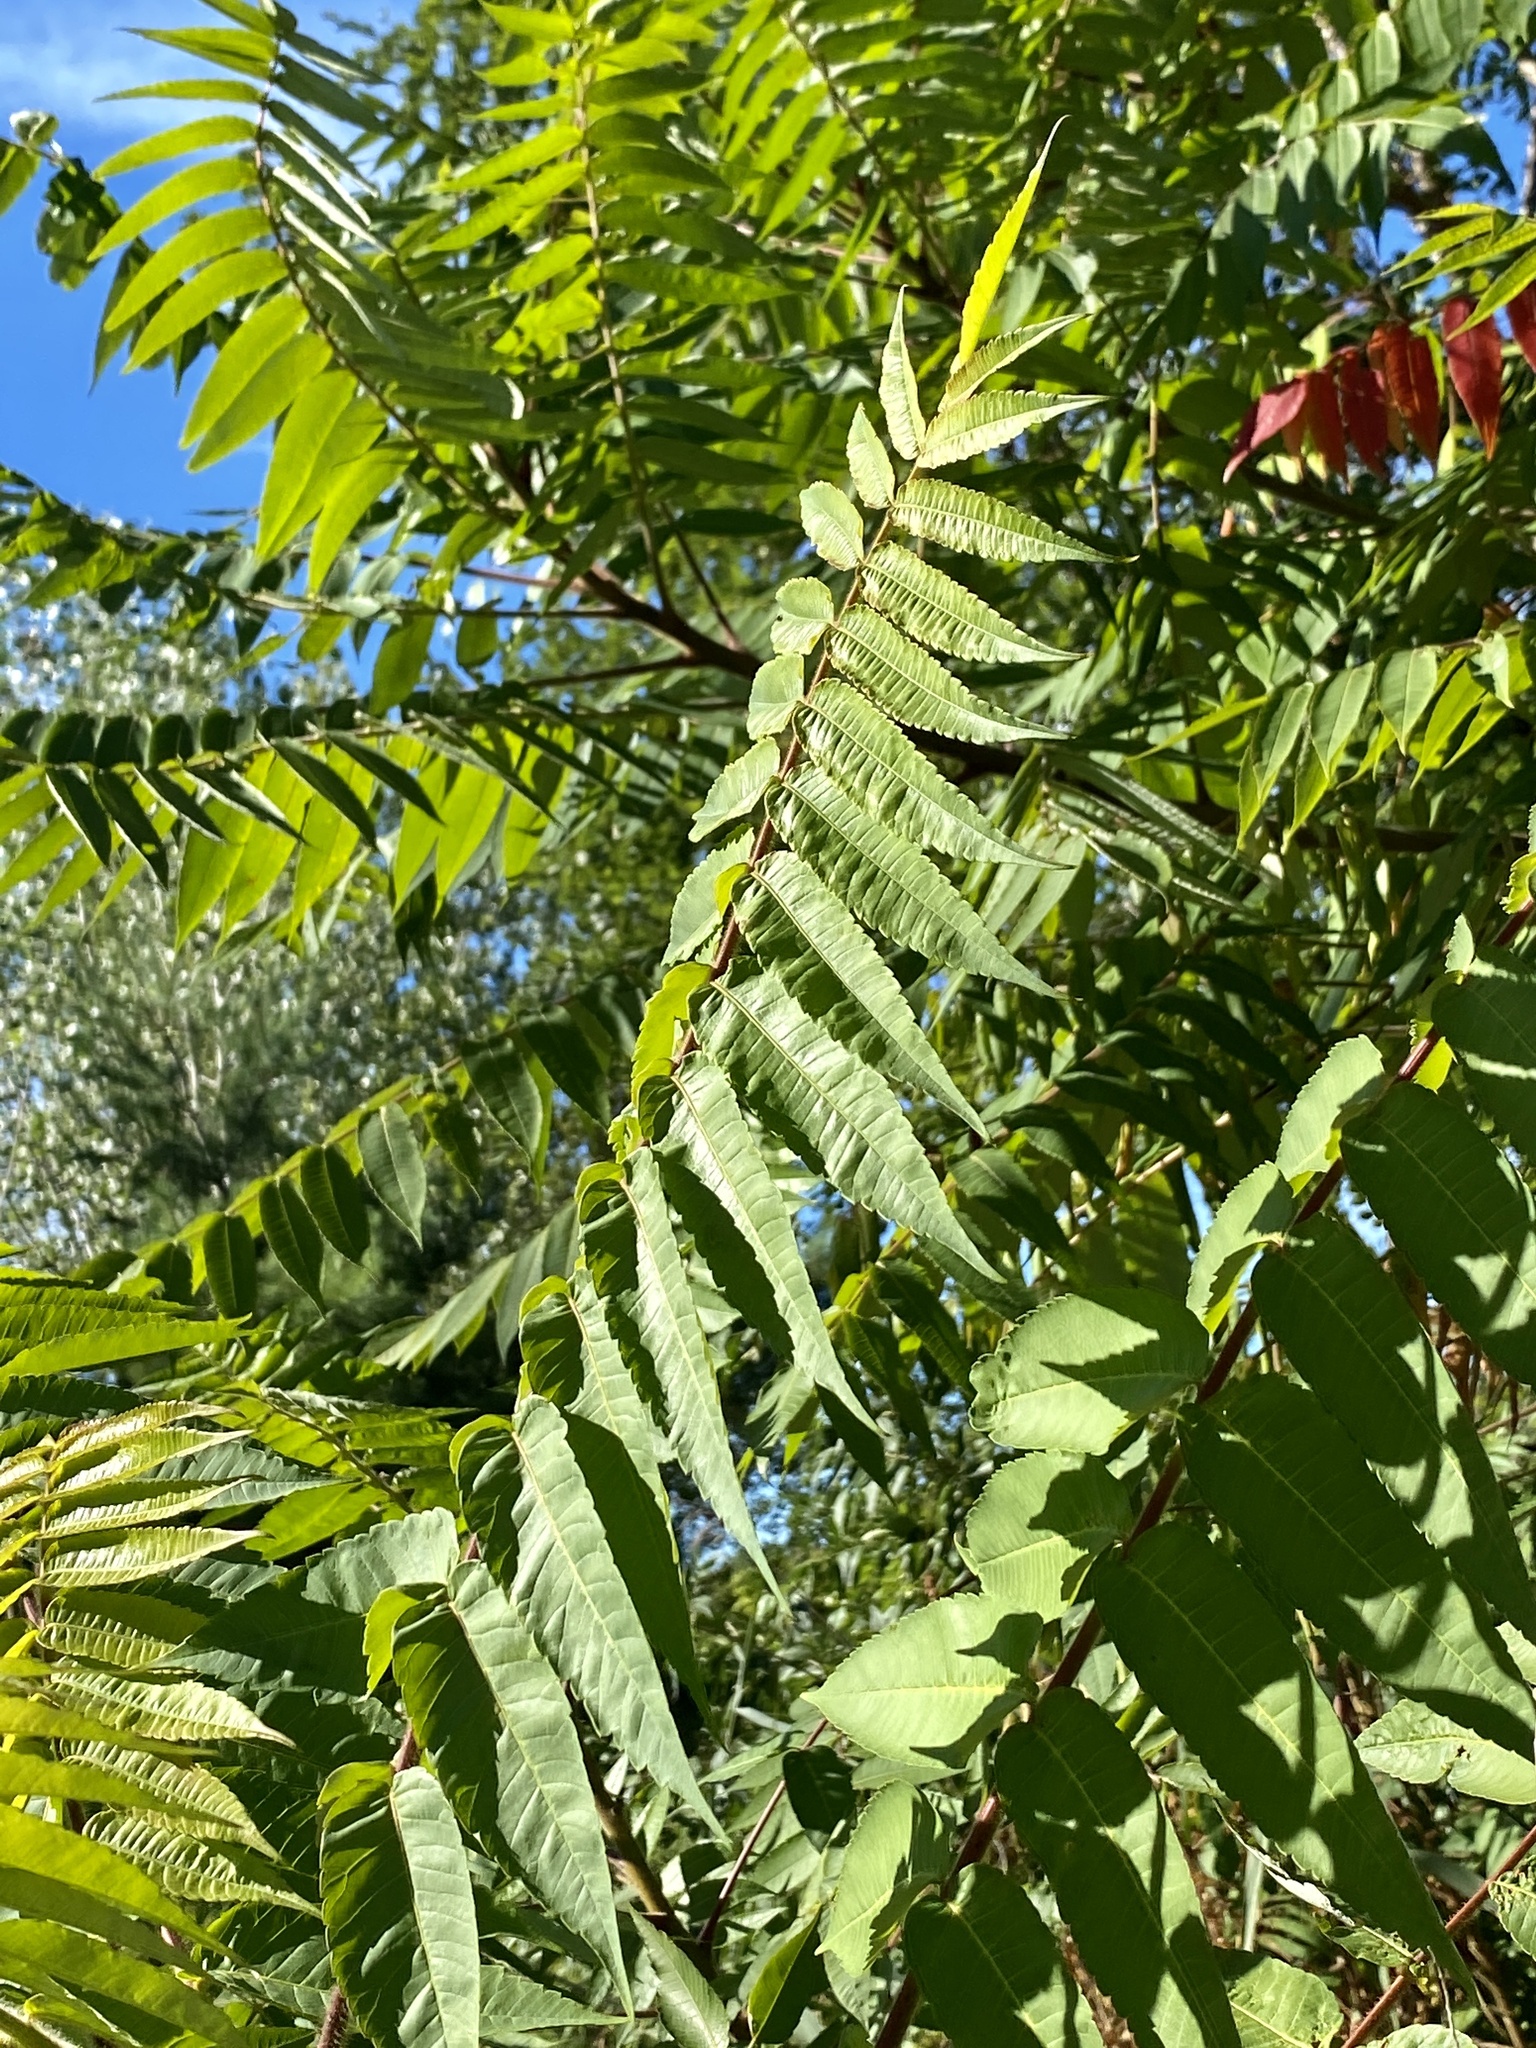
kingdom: Plantae
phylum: Tracheophyta
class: Magnoliopsida
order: Sapindales
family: Anacardiaceae
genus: Rhus
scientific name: Rhus typhina
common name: Staghorn sumac
